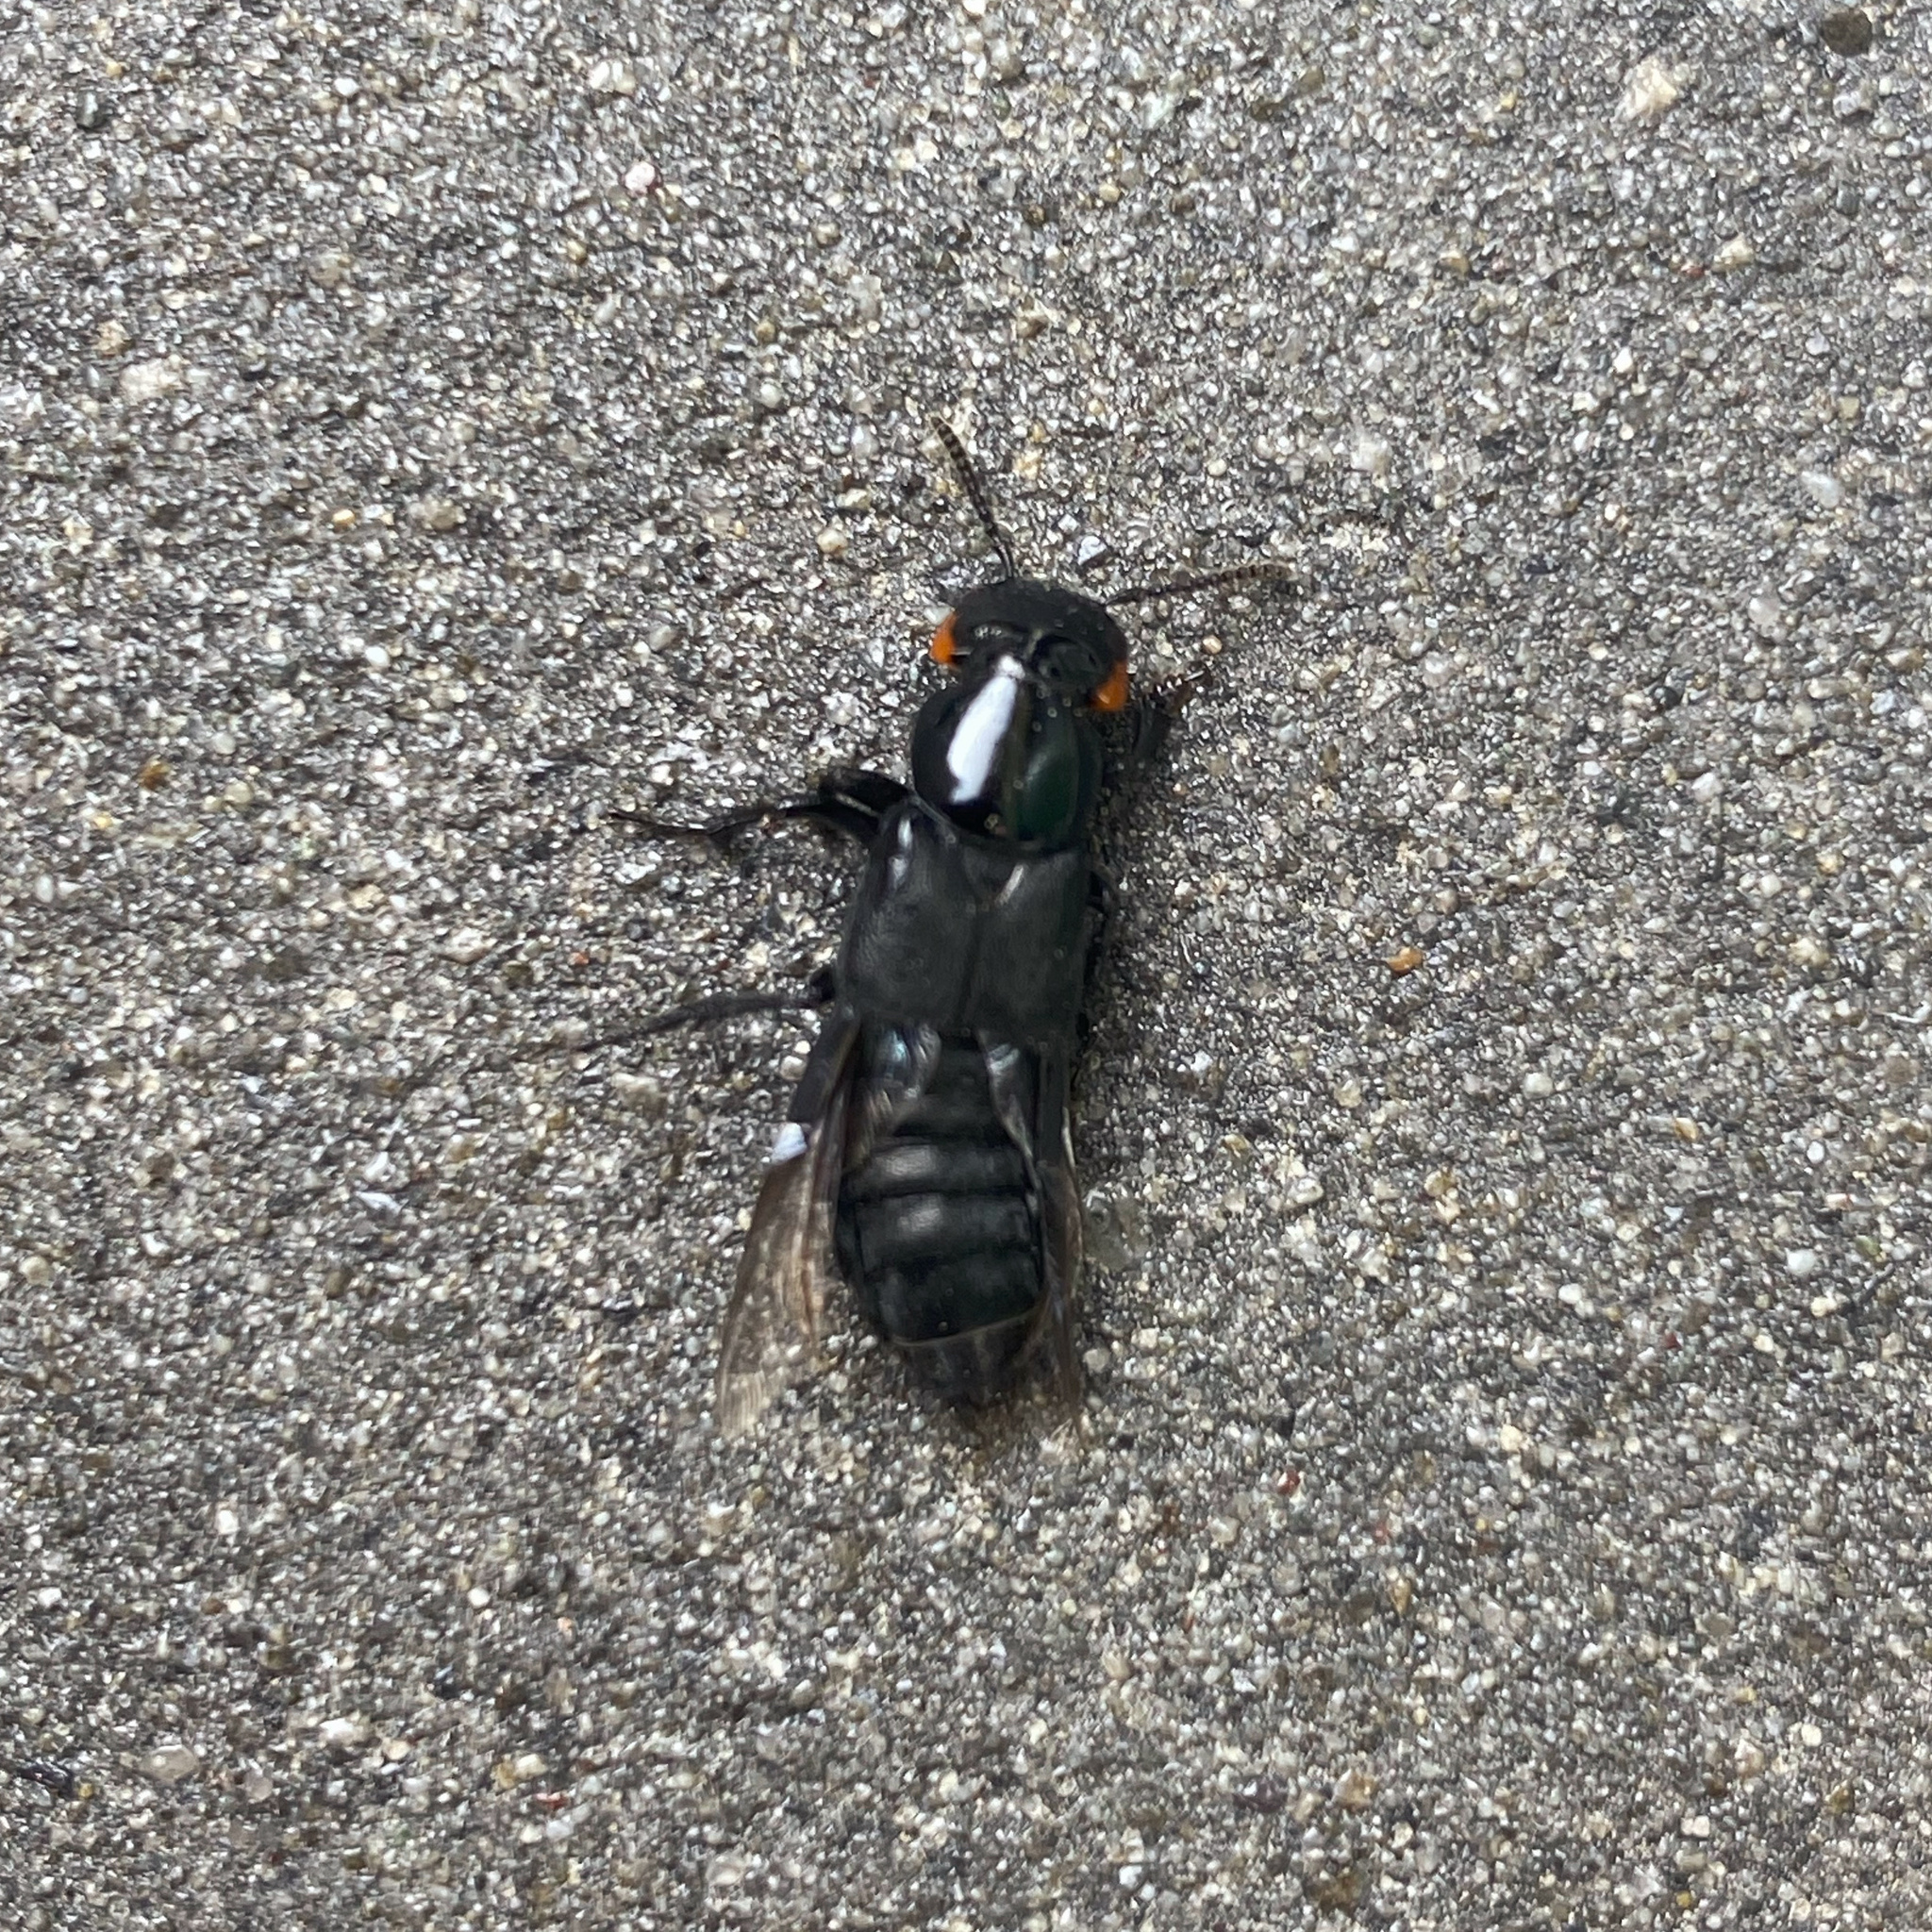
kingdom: Animalia
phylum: Arthropoda
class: Insecta
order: Coleoptera
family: Staphylinidae
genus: Creophilus
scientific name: Creophilus oculatus
